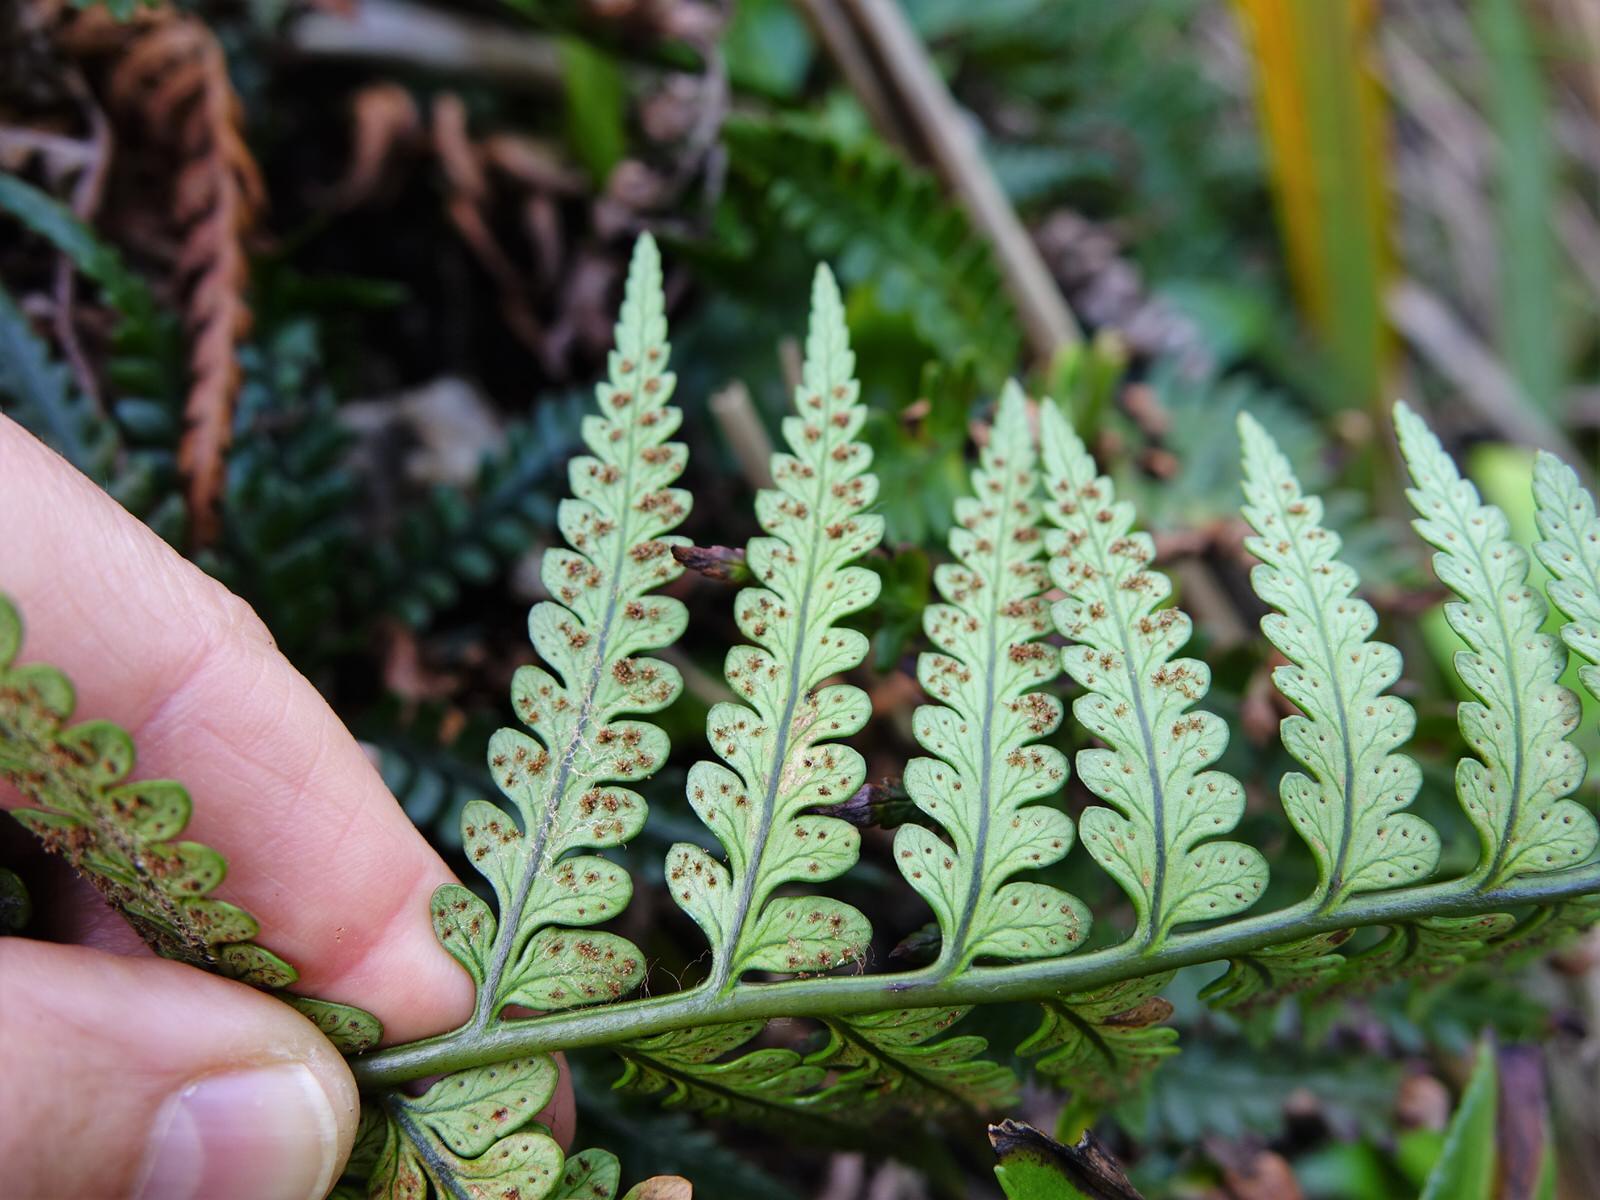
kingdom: Plantae
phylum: Tracheophyta
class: Polypodiopsida
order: Polypodiales
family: Dryopteridaceae
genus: Polystichum
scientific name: Polystichum wawranum
